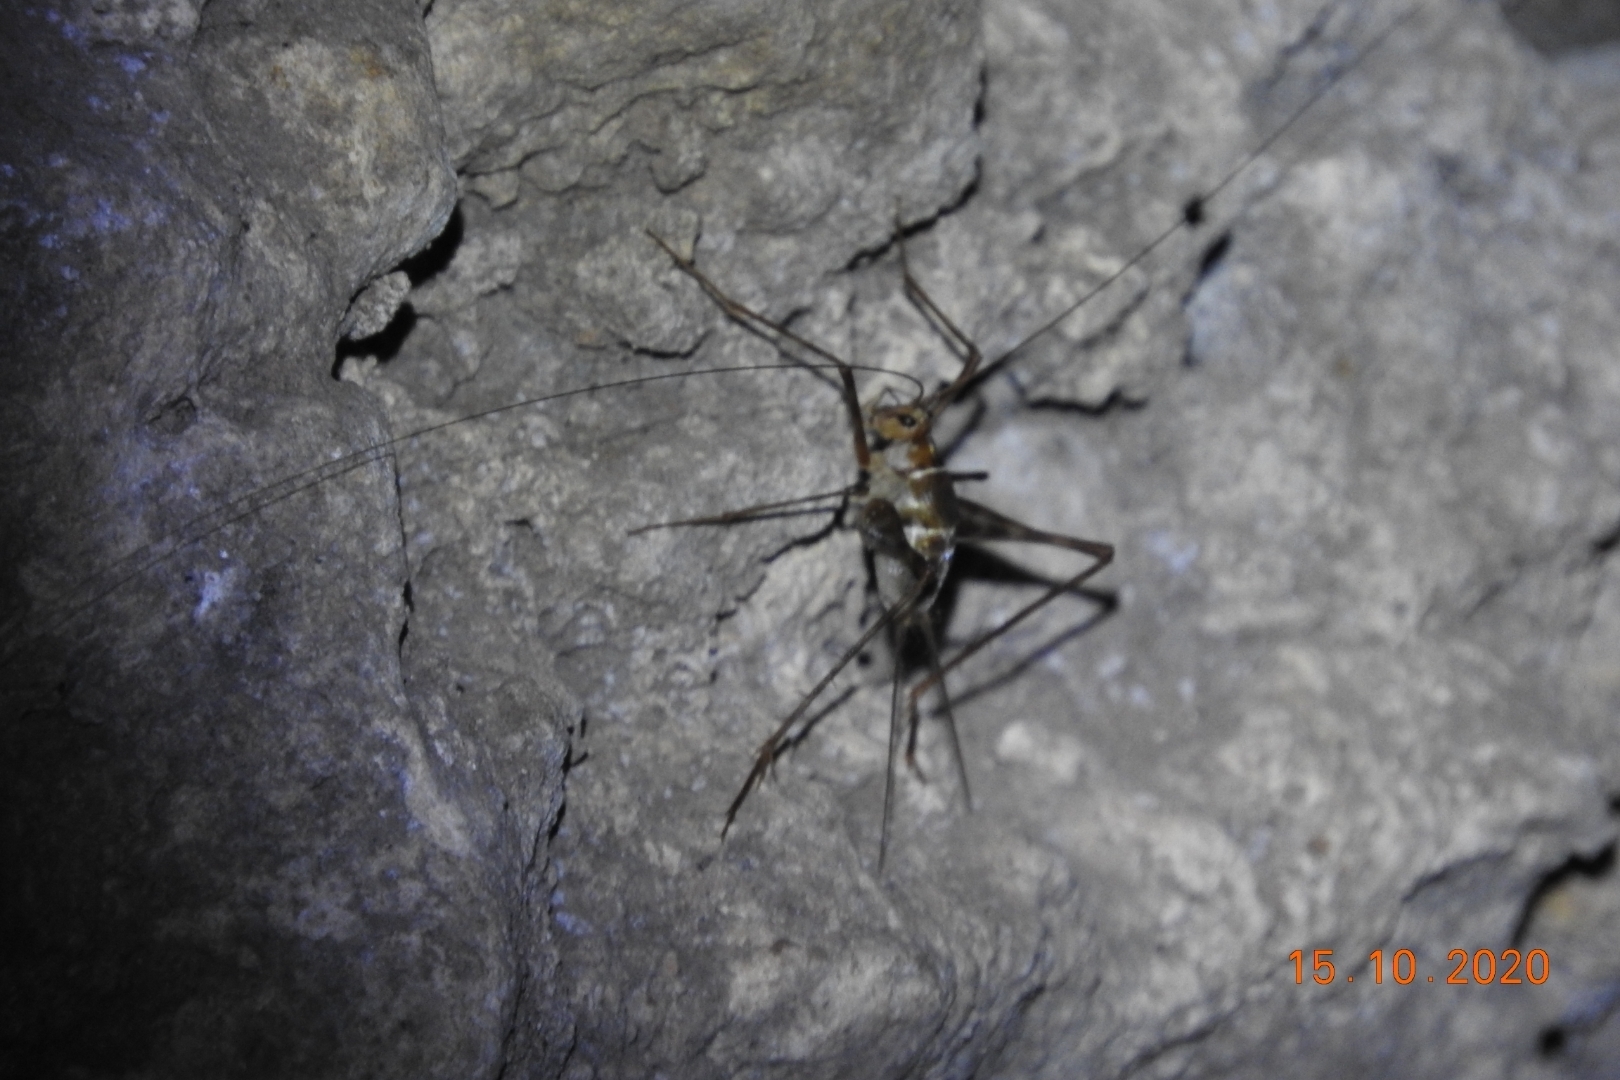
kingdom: Animalia
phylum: Arthropoda
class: Insecta
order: Orthoptera
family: Phalangopsidae
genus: Mayagryllus
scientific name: Mayagryllus yucatanus
